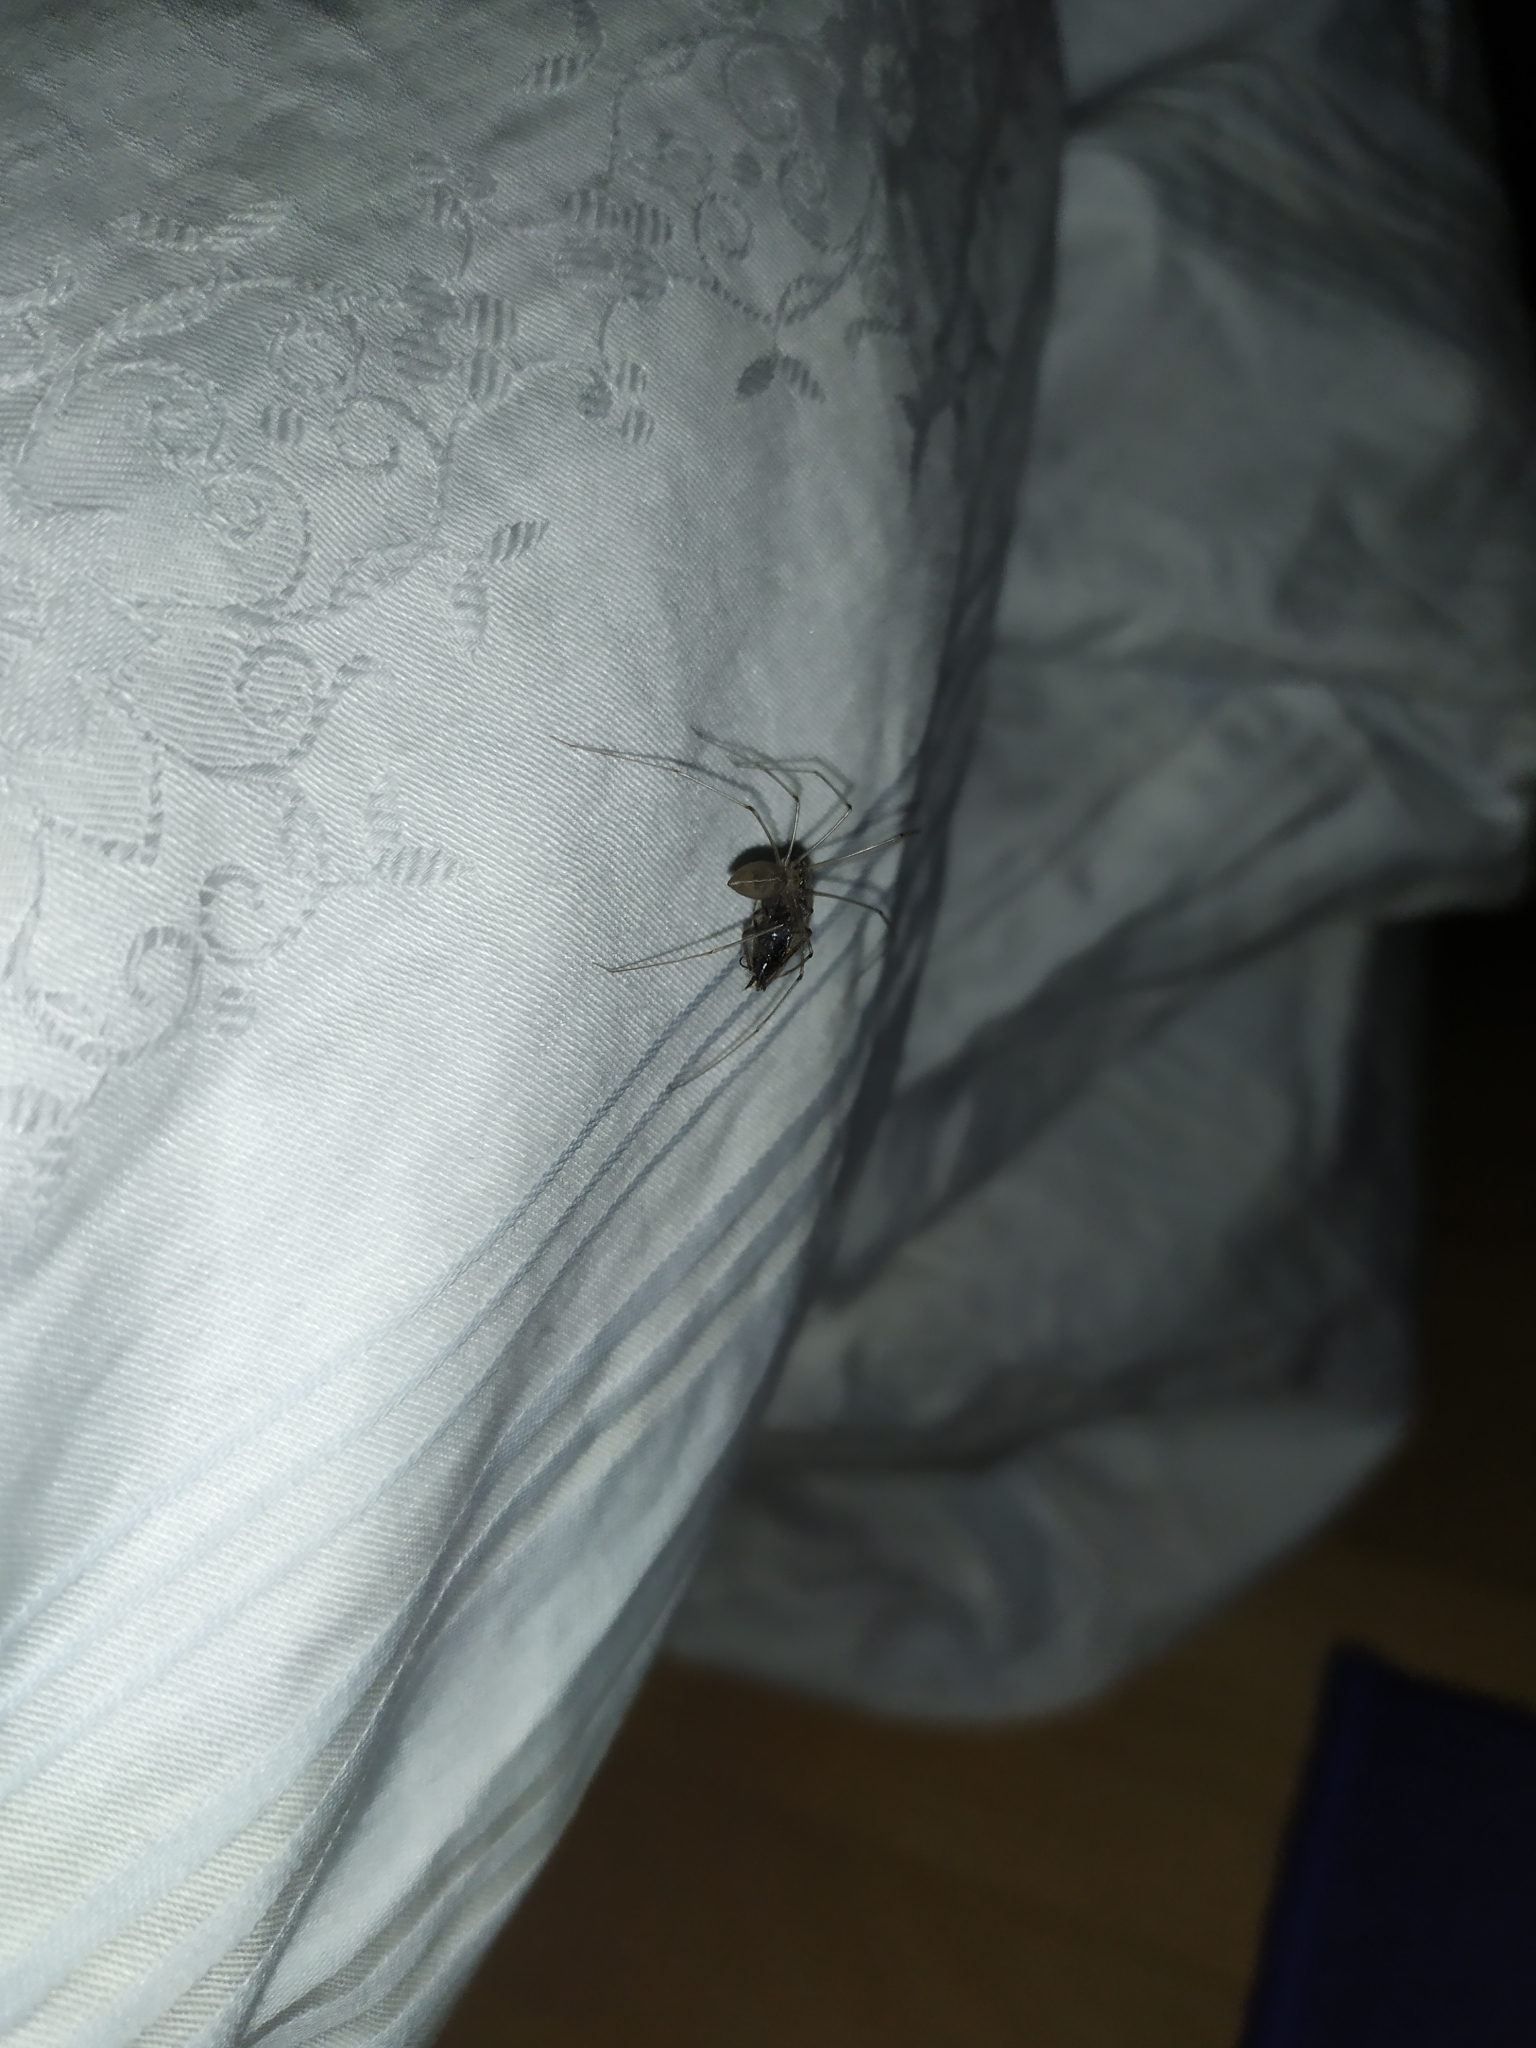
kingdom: Animalia
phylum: Arthropoda
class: Arachnida
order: Araneae
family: Pholcidae
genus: Pholcus
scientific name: Pholcus phalangioides
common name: Longbodied cellar spider
